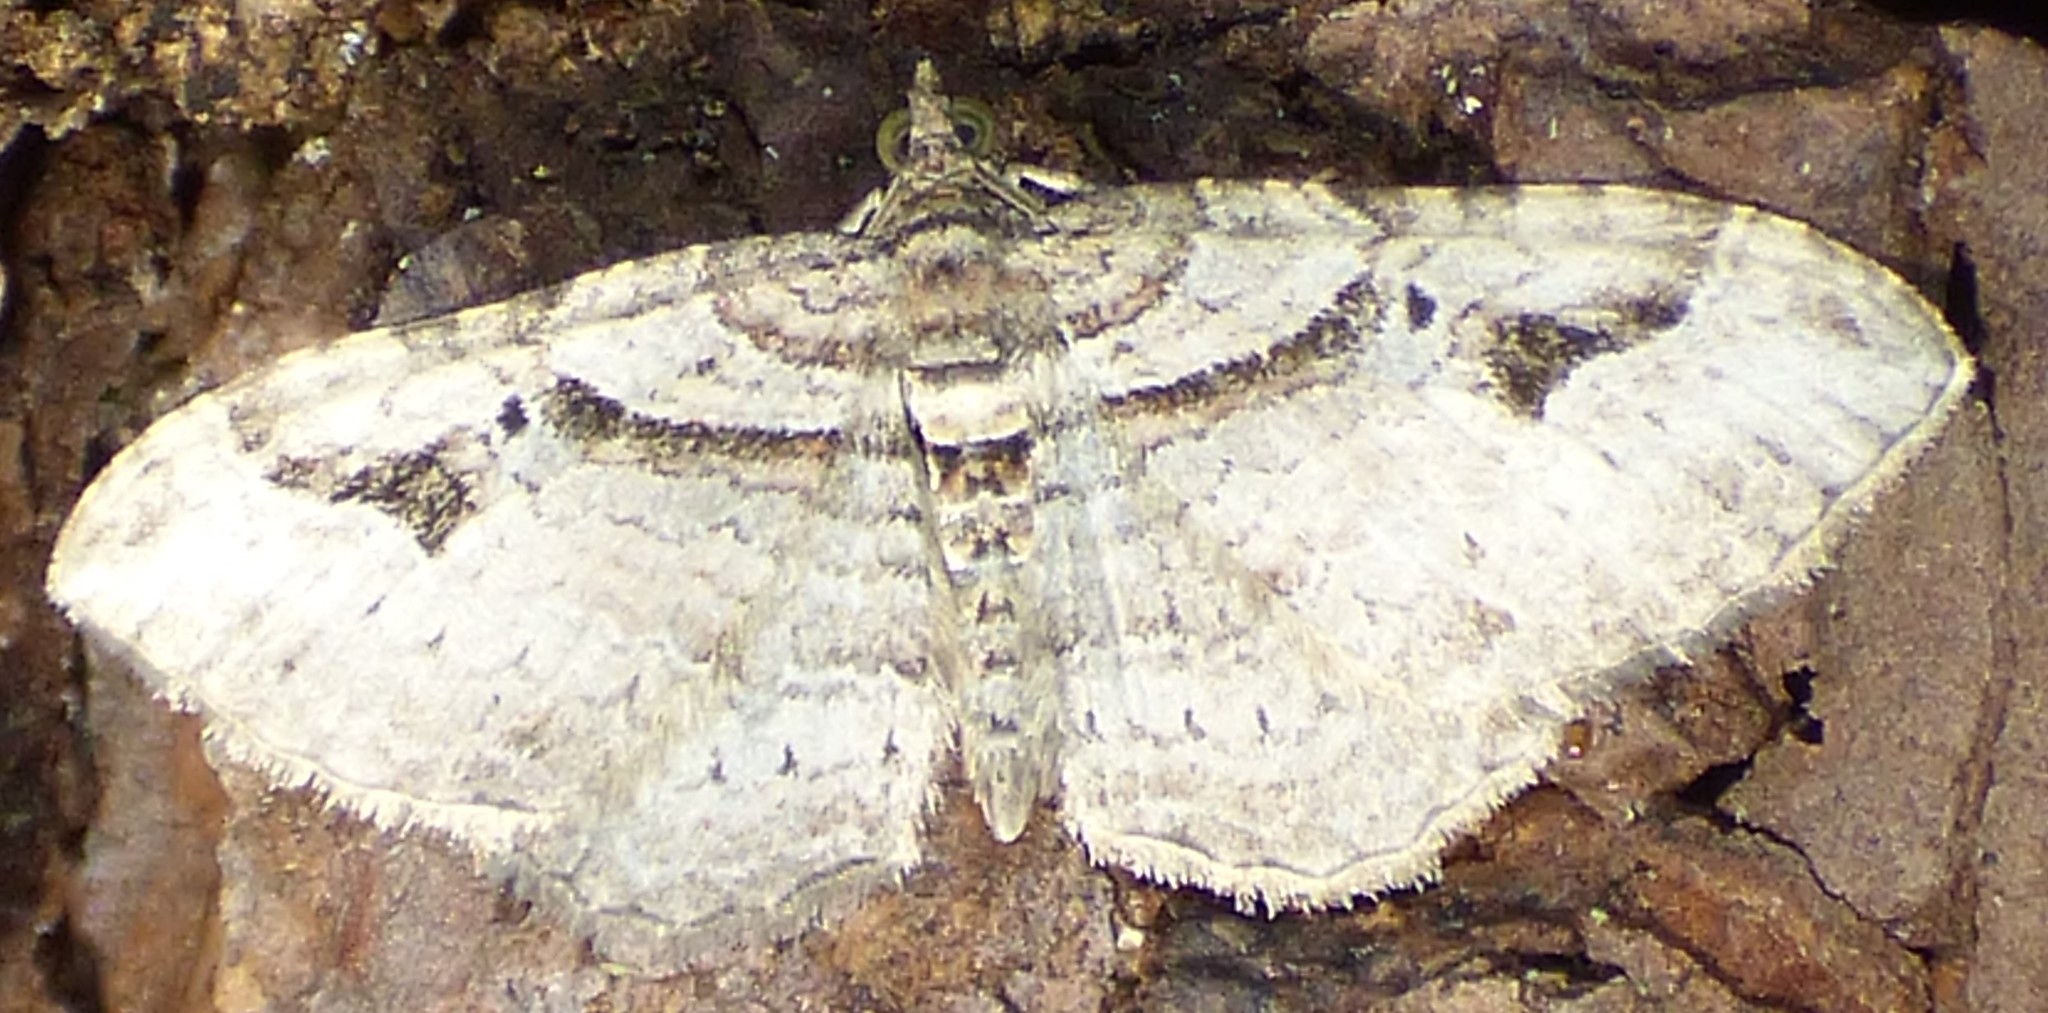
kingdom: Animalia
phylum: Arthropoda
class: Insecta
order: Lepidoptera
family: Geometridae
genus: Costaconvexa
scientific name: Costaconvexa centrostrigaria
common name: Bent-line carpet
